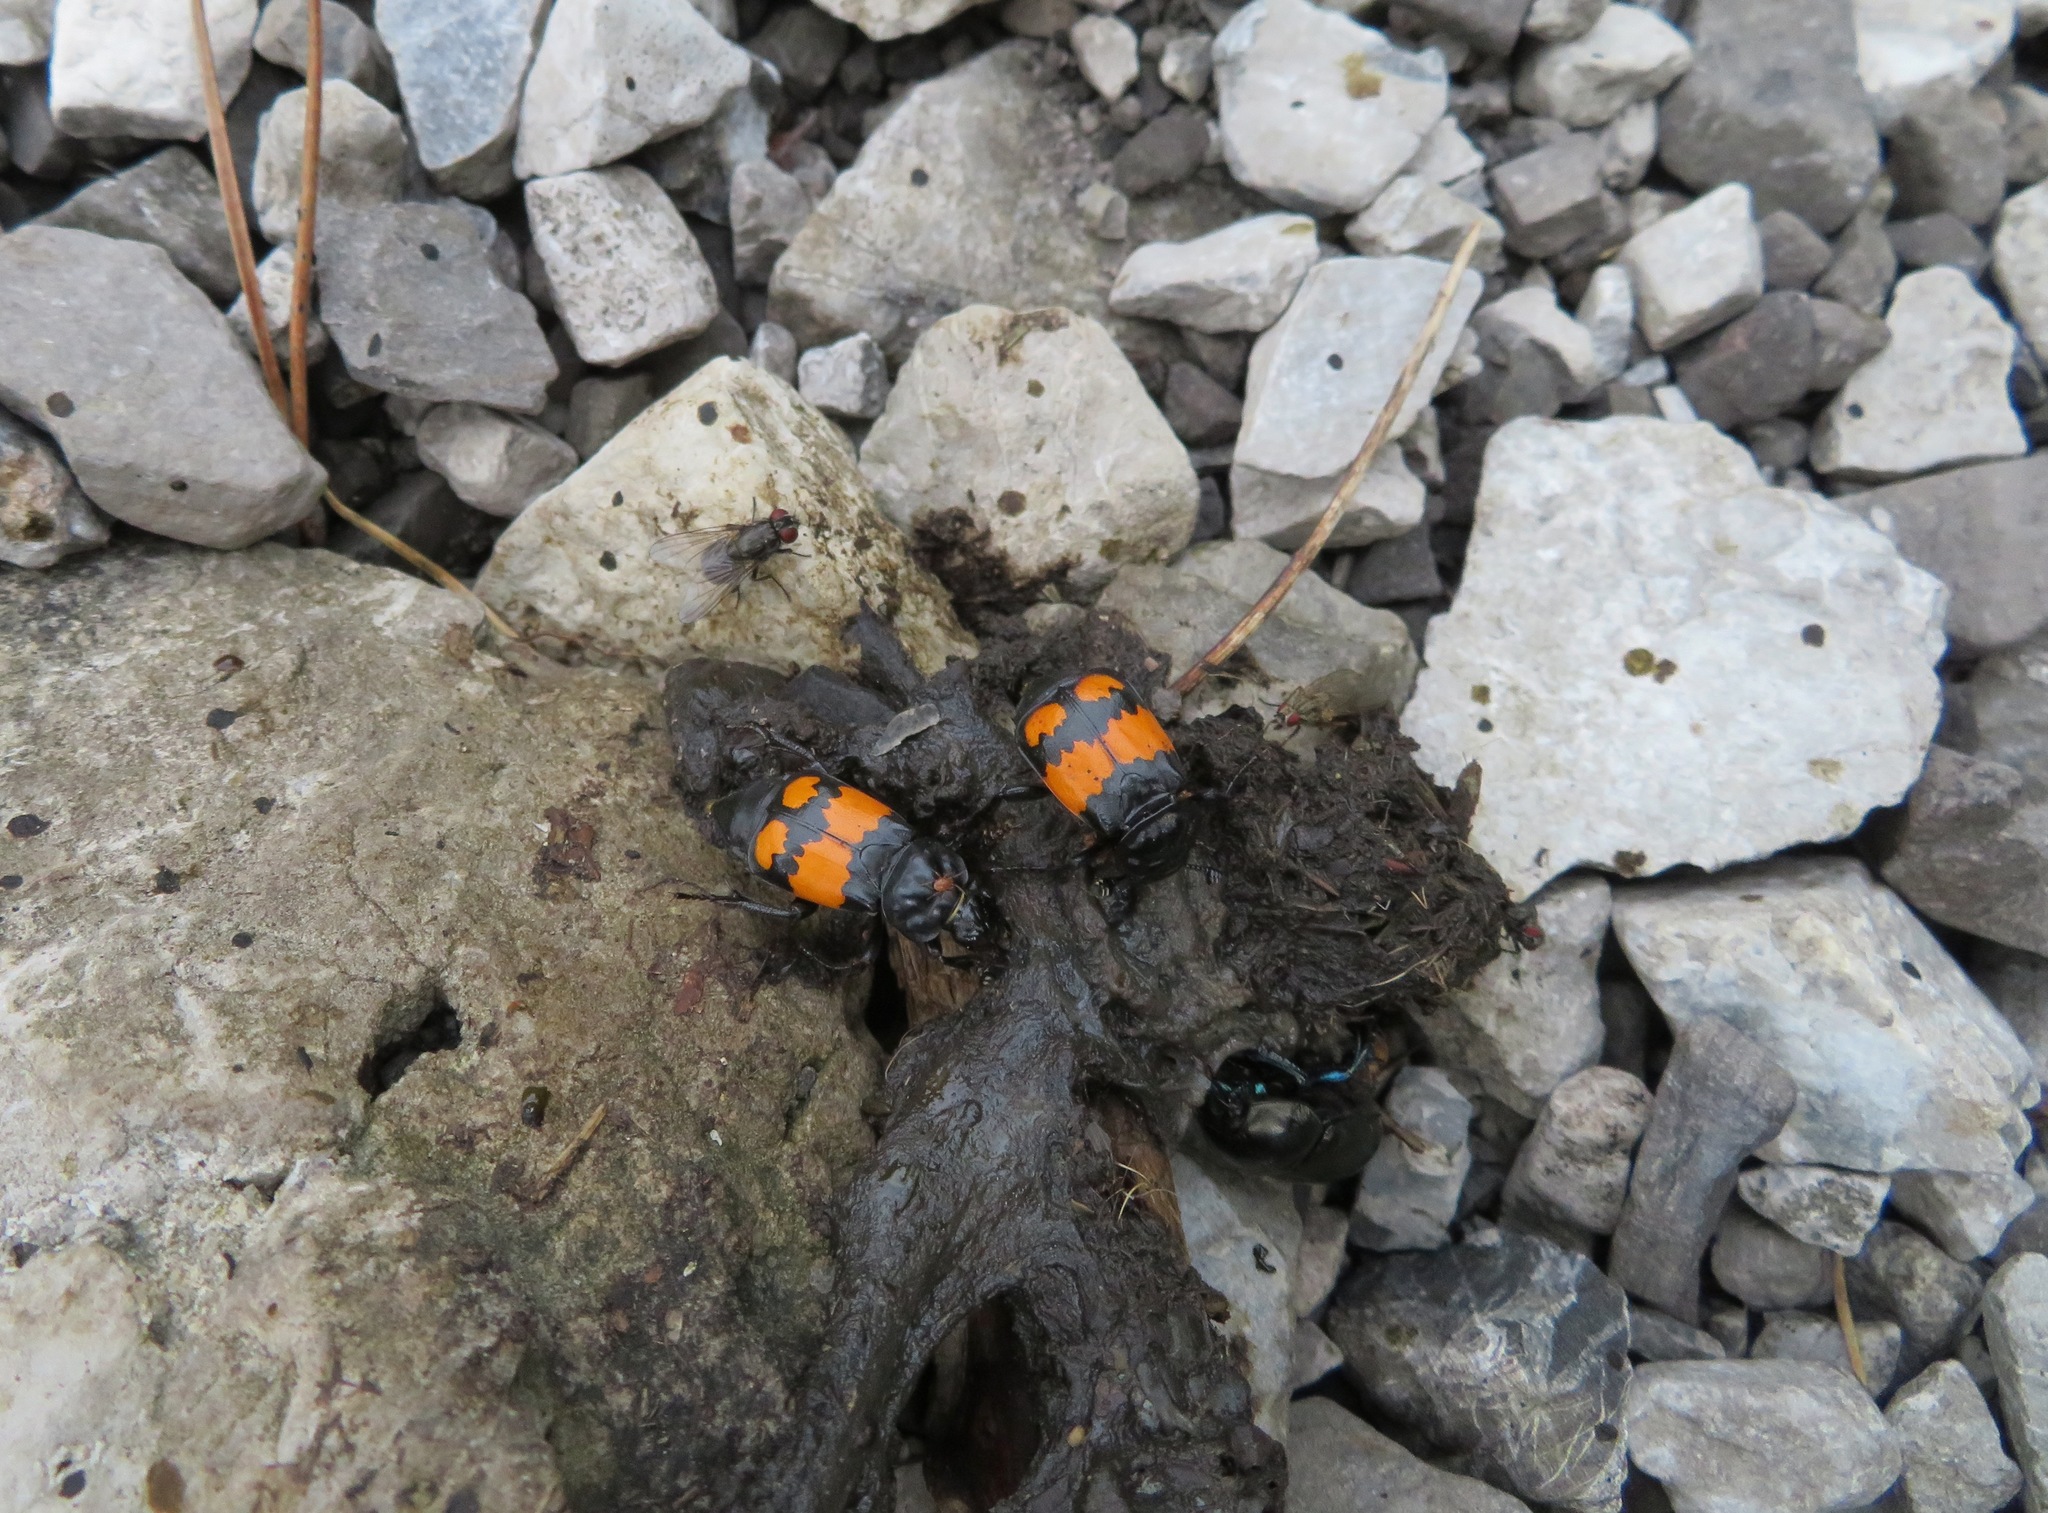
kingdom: Animalia
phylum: Arthropoda
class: Insecta
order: Coleoptera
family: Staphylinidae
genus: Nicrophorus
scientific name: Nicrophorus vespilloides
